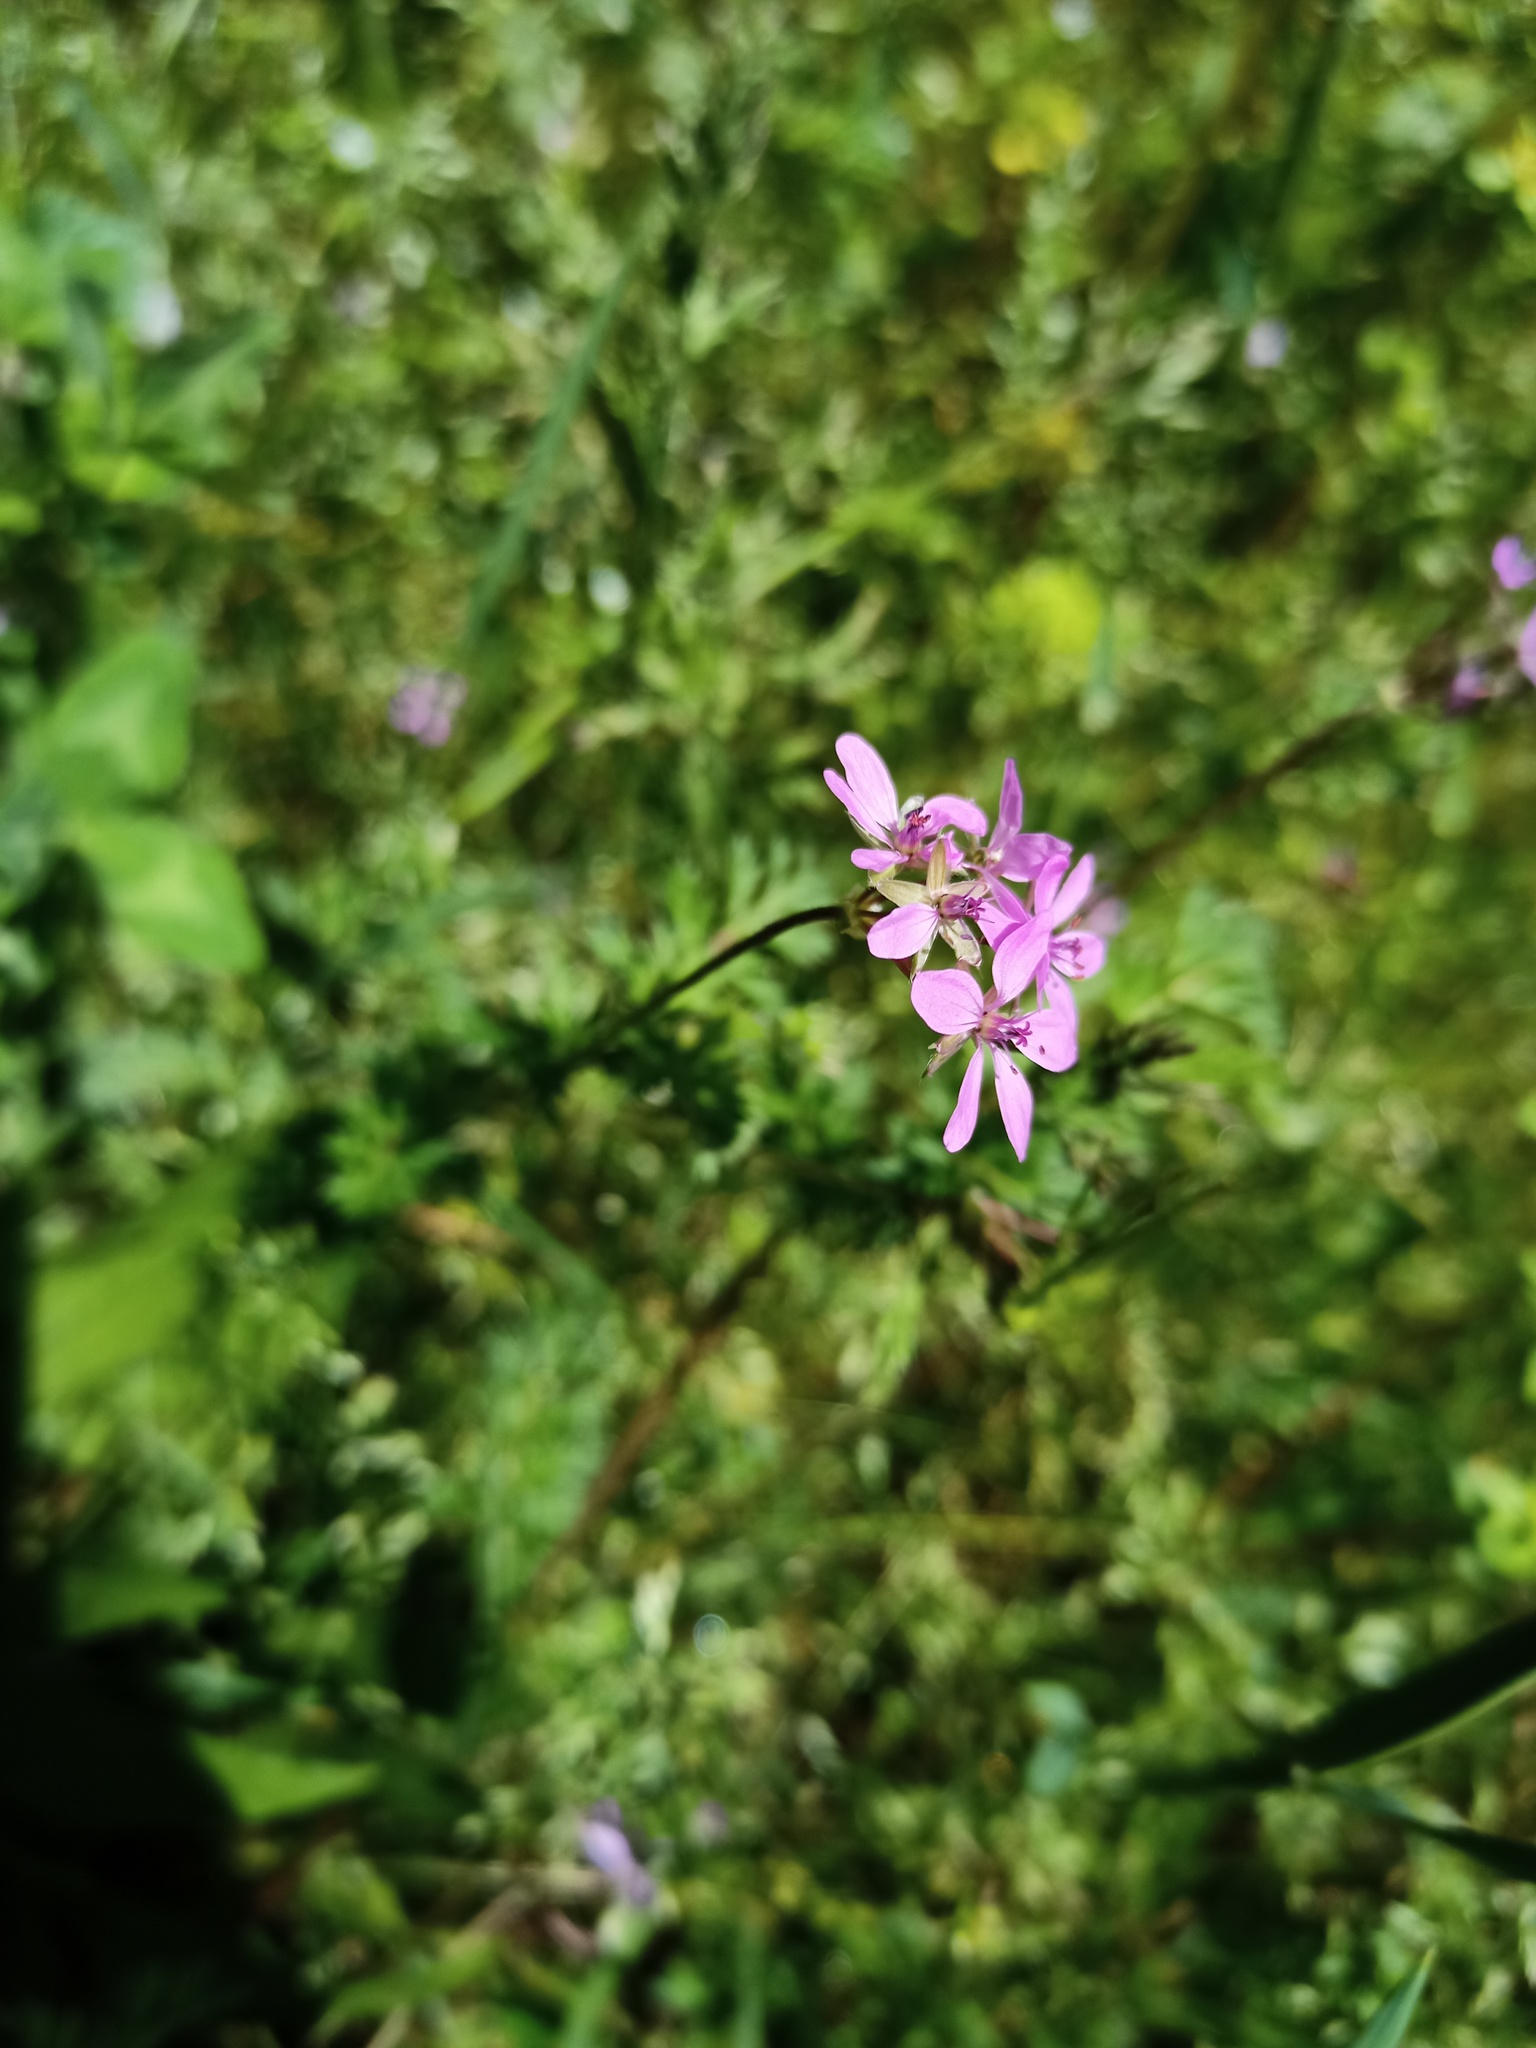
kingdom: Plantae
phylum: Tracheophyta
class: Magnoliopsida
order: Geraniales
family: Geraniaceae
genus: Erodium
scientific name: Erodium cicutarium
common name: Common stork's-bill
